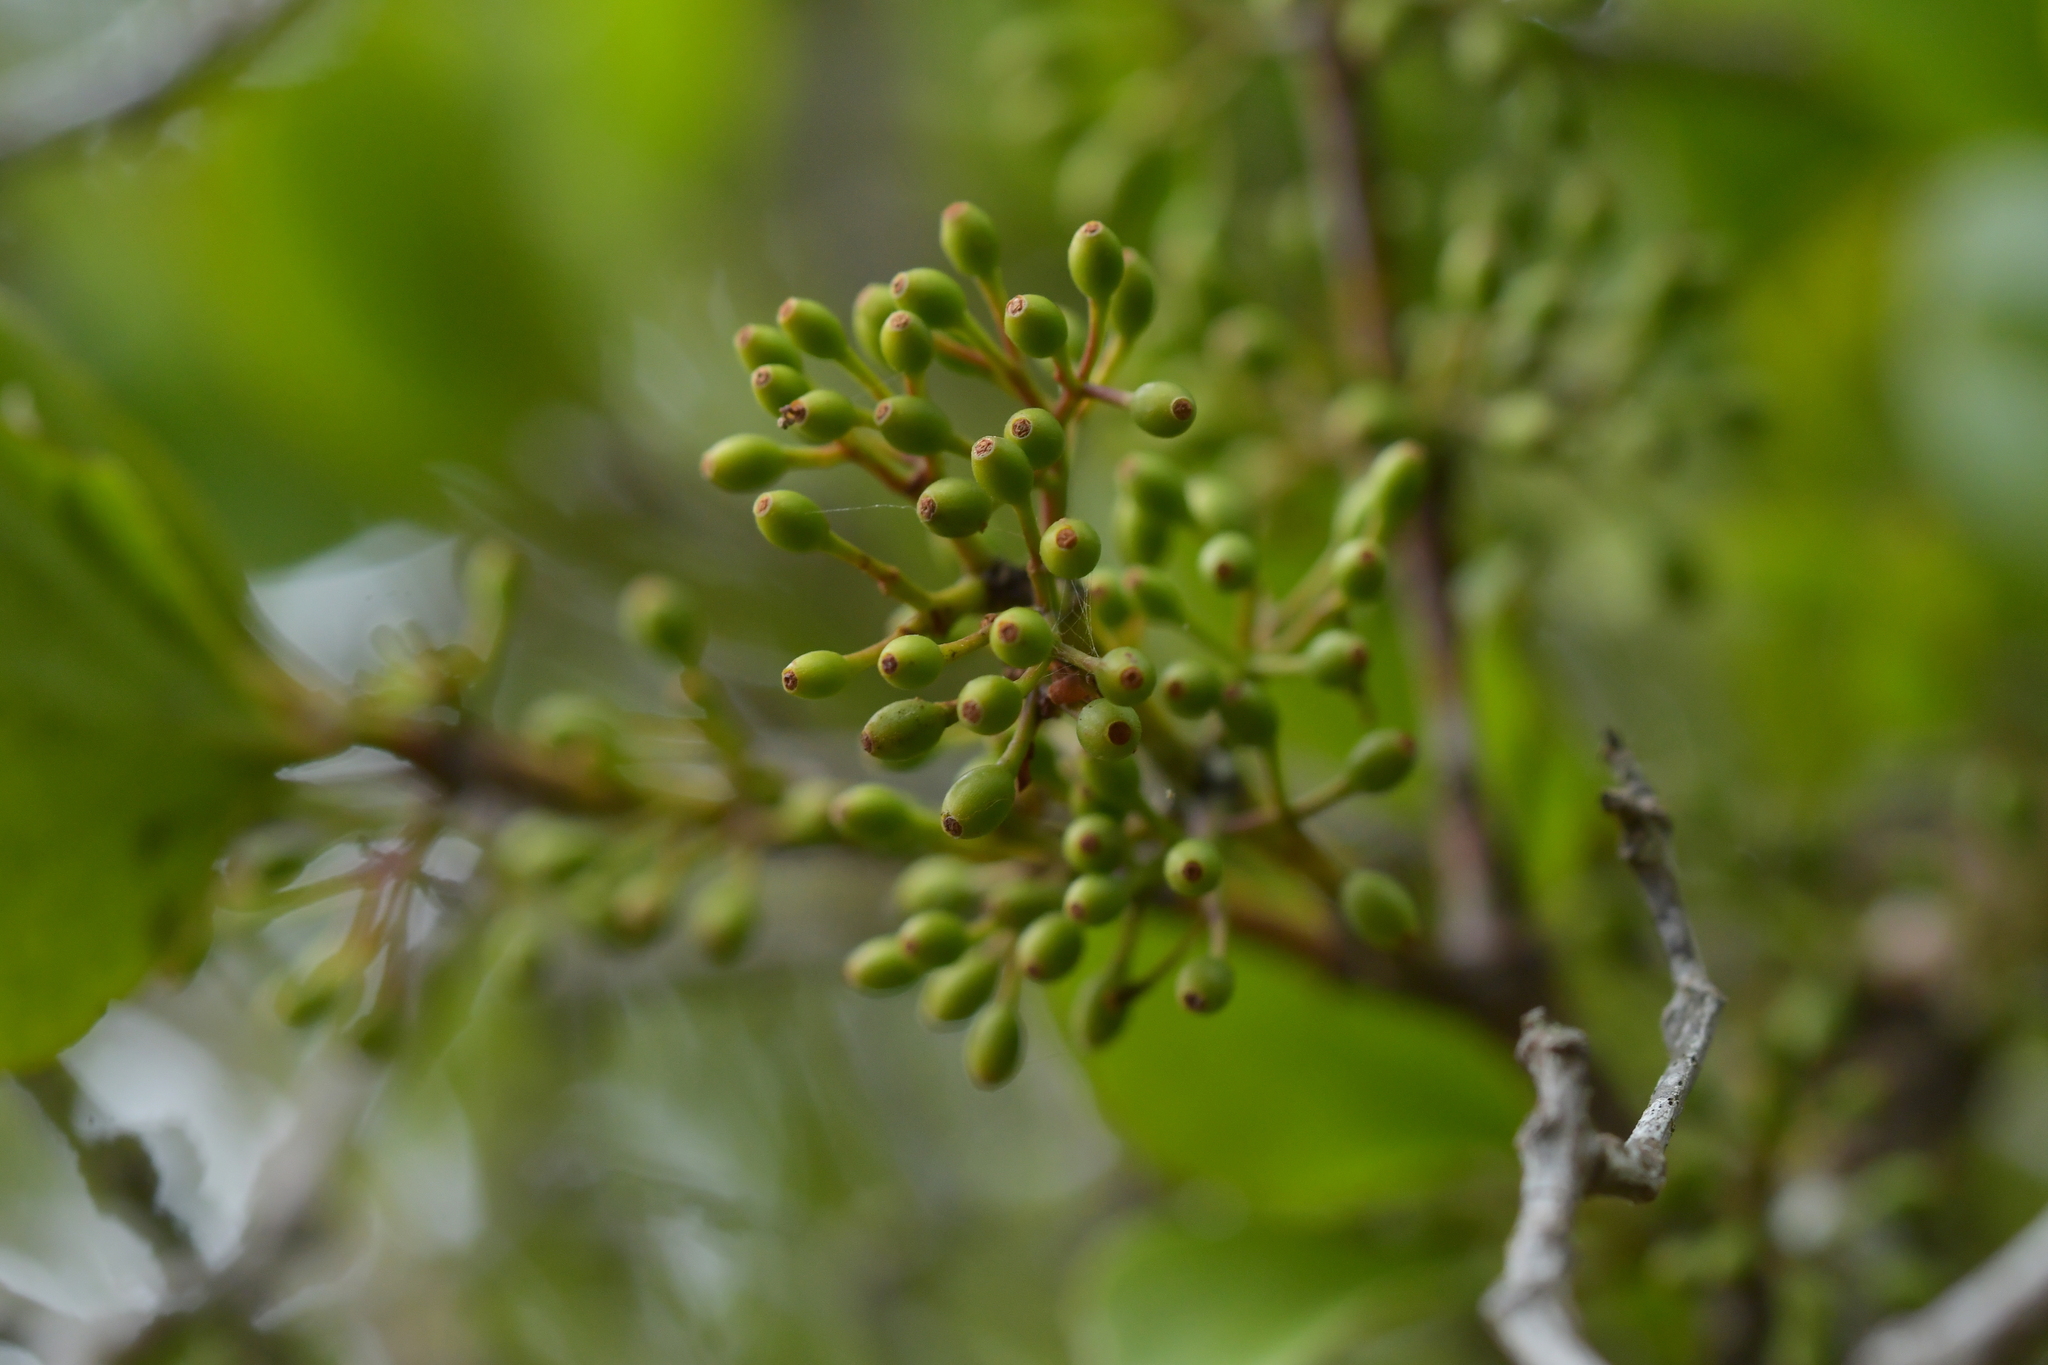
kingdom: Plantae
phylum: Tracheophyta
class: Magnoliopsida
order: Santalales
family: Loranthaceae
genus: Ileostylus
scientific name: Ileostylus micranthus
